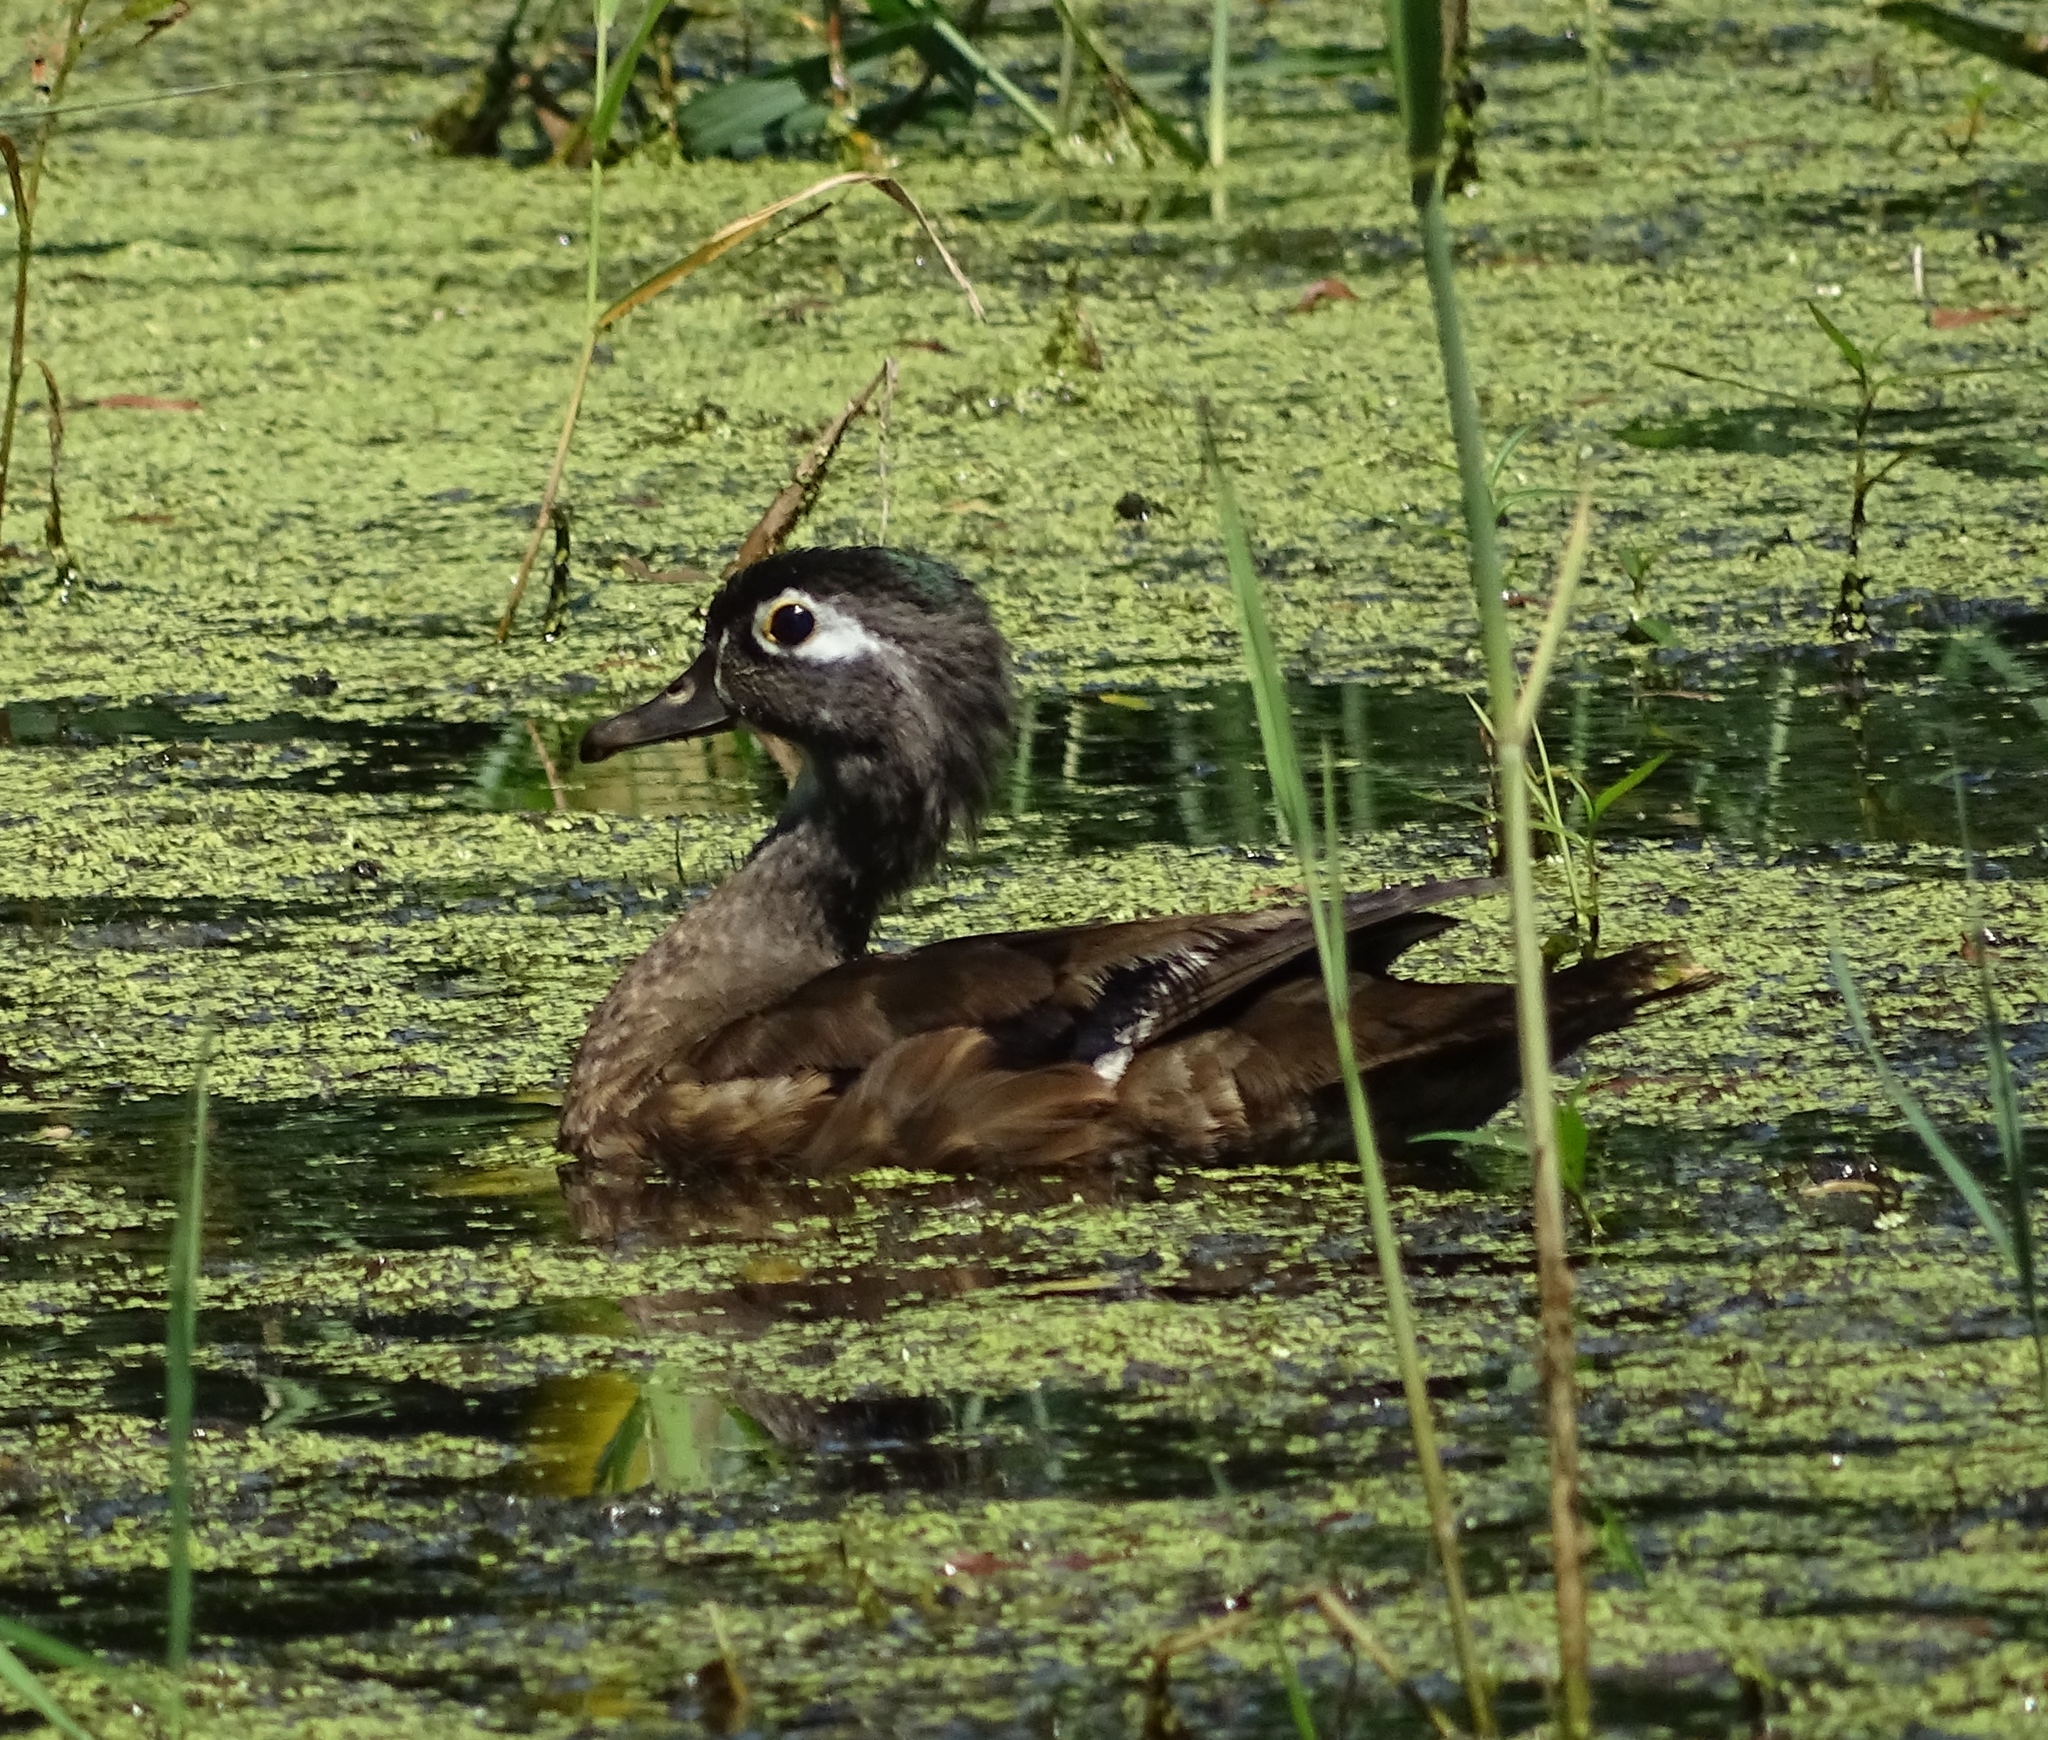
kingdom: Animalia
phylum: Chordata
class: Aves
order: Anseriformes
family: Anatidae
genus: Aix
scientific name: Aix sponsa
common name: Wood duck
